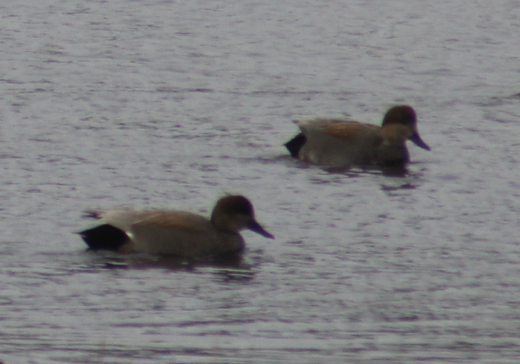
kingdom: Animalia
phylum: Chordata
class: Aves
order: Anseriformes
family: Anatidae
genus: Mareca
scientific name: Mareca strepera
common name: Gadwall
